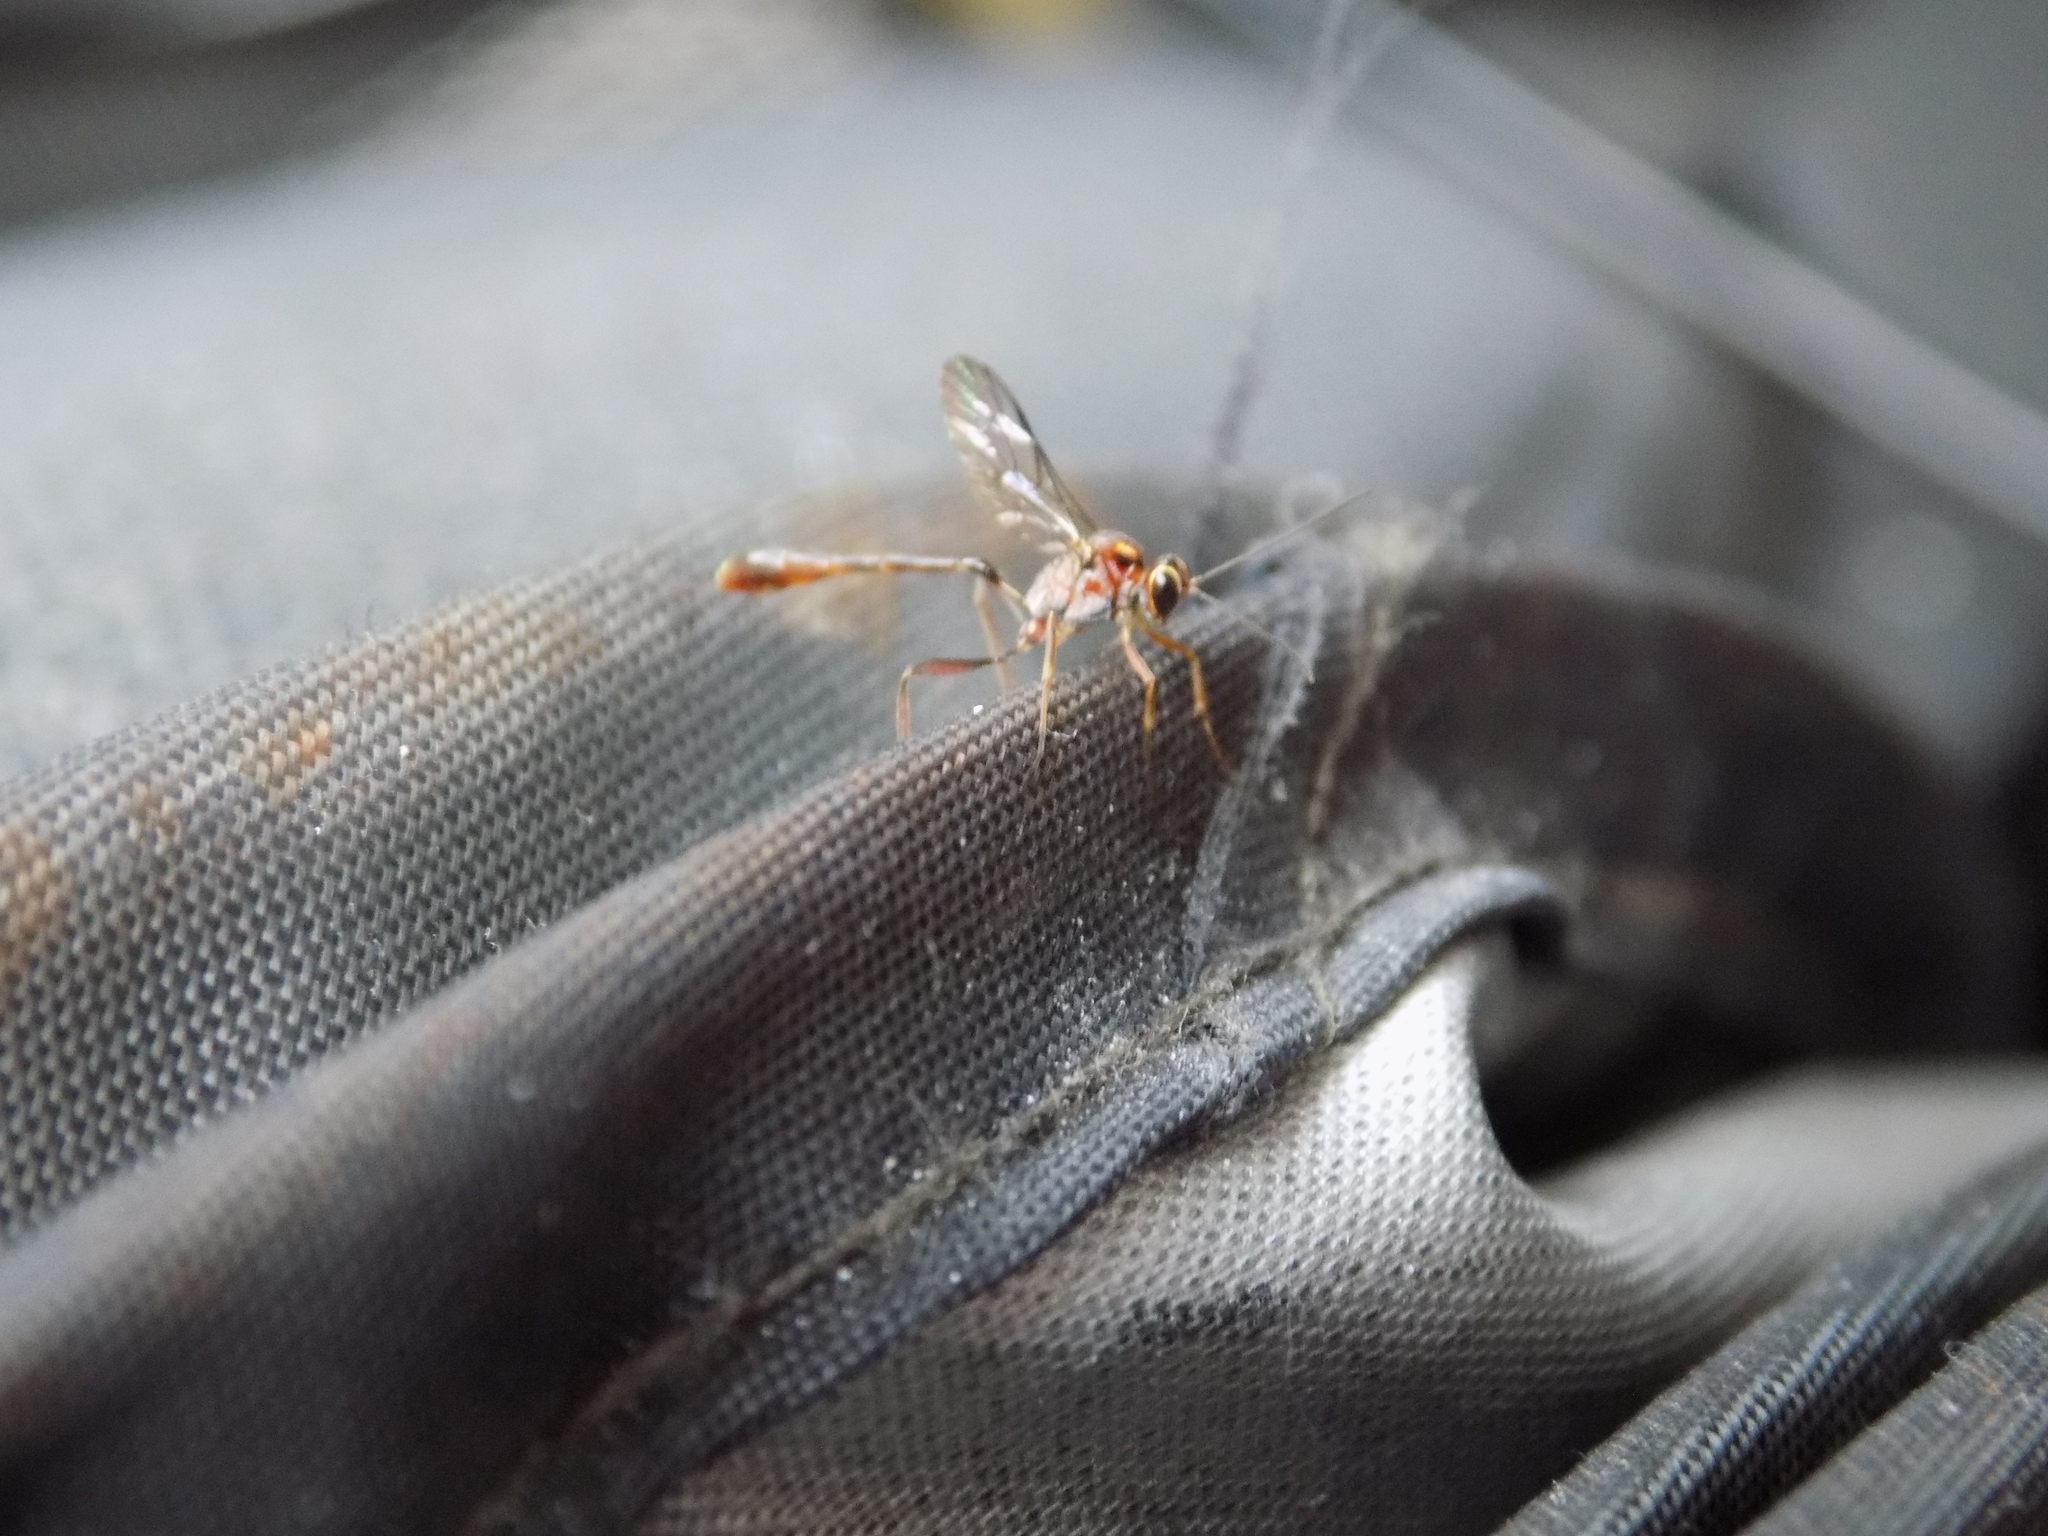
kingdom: Animalia
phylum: Arthropoda
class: Insecta
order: Hymenoptera
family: Ichneumonidae
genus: Anomalon
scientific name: Anomalon
